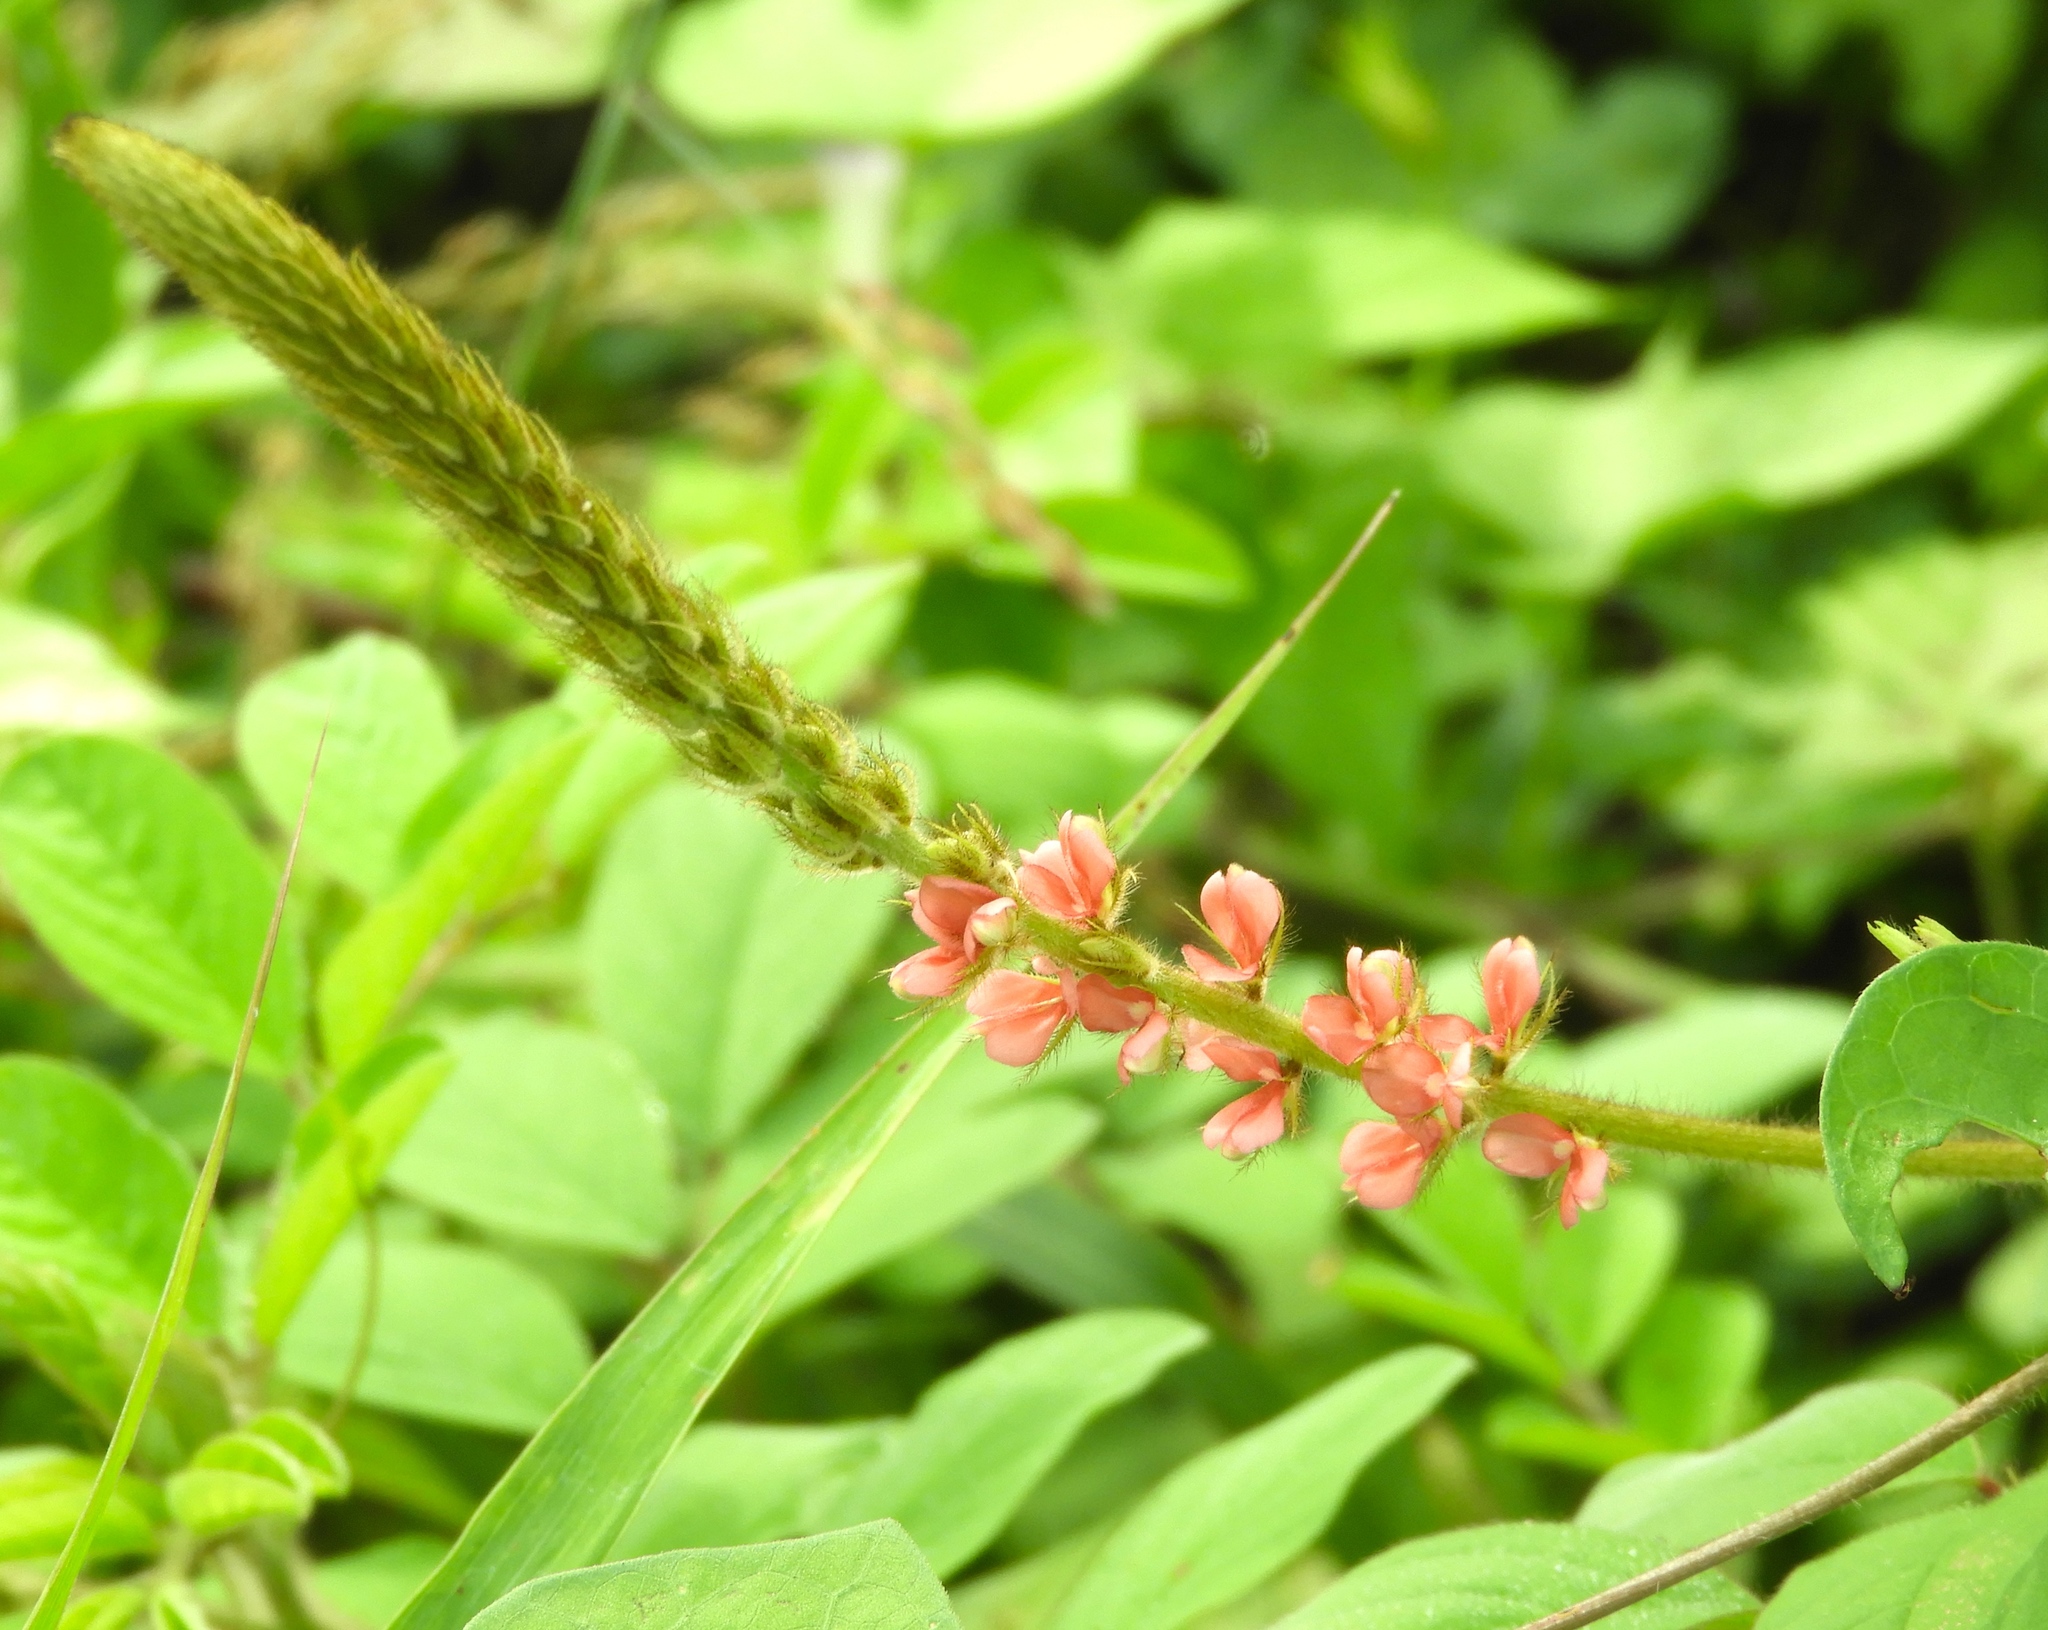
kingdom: Plantae
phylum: Tracheophyta
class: Magnoliopsida
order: Fabales
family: Fabaceae
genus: Indigofera
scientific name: Indigofera
